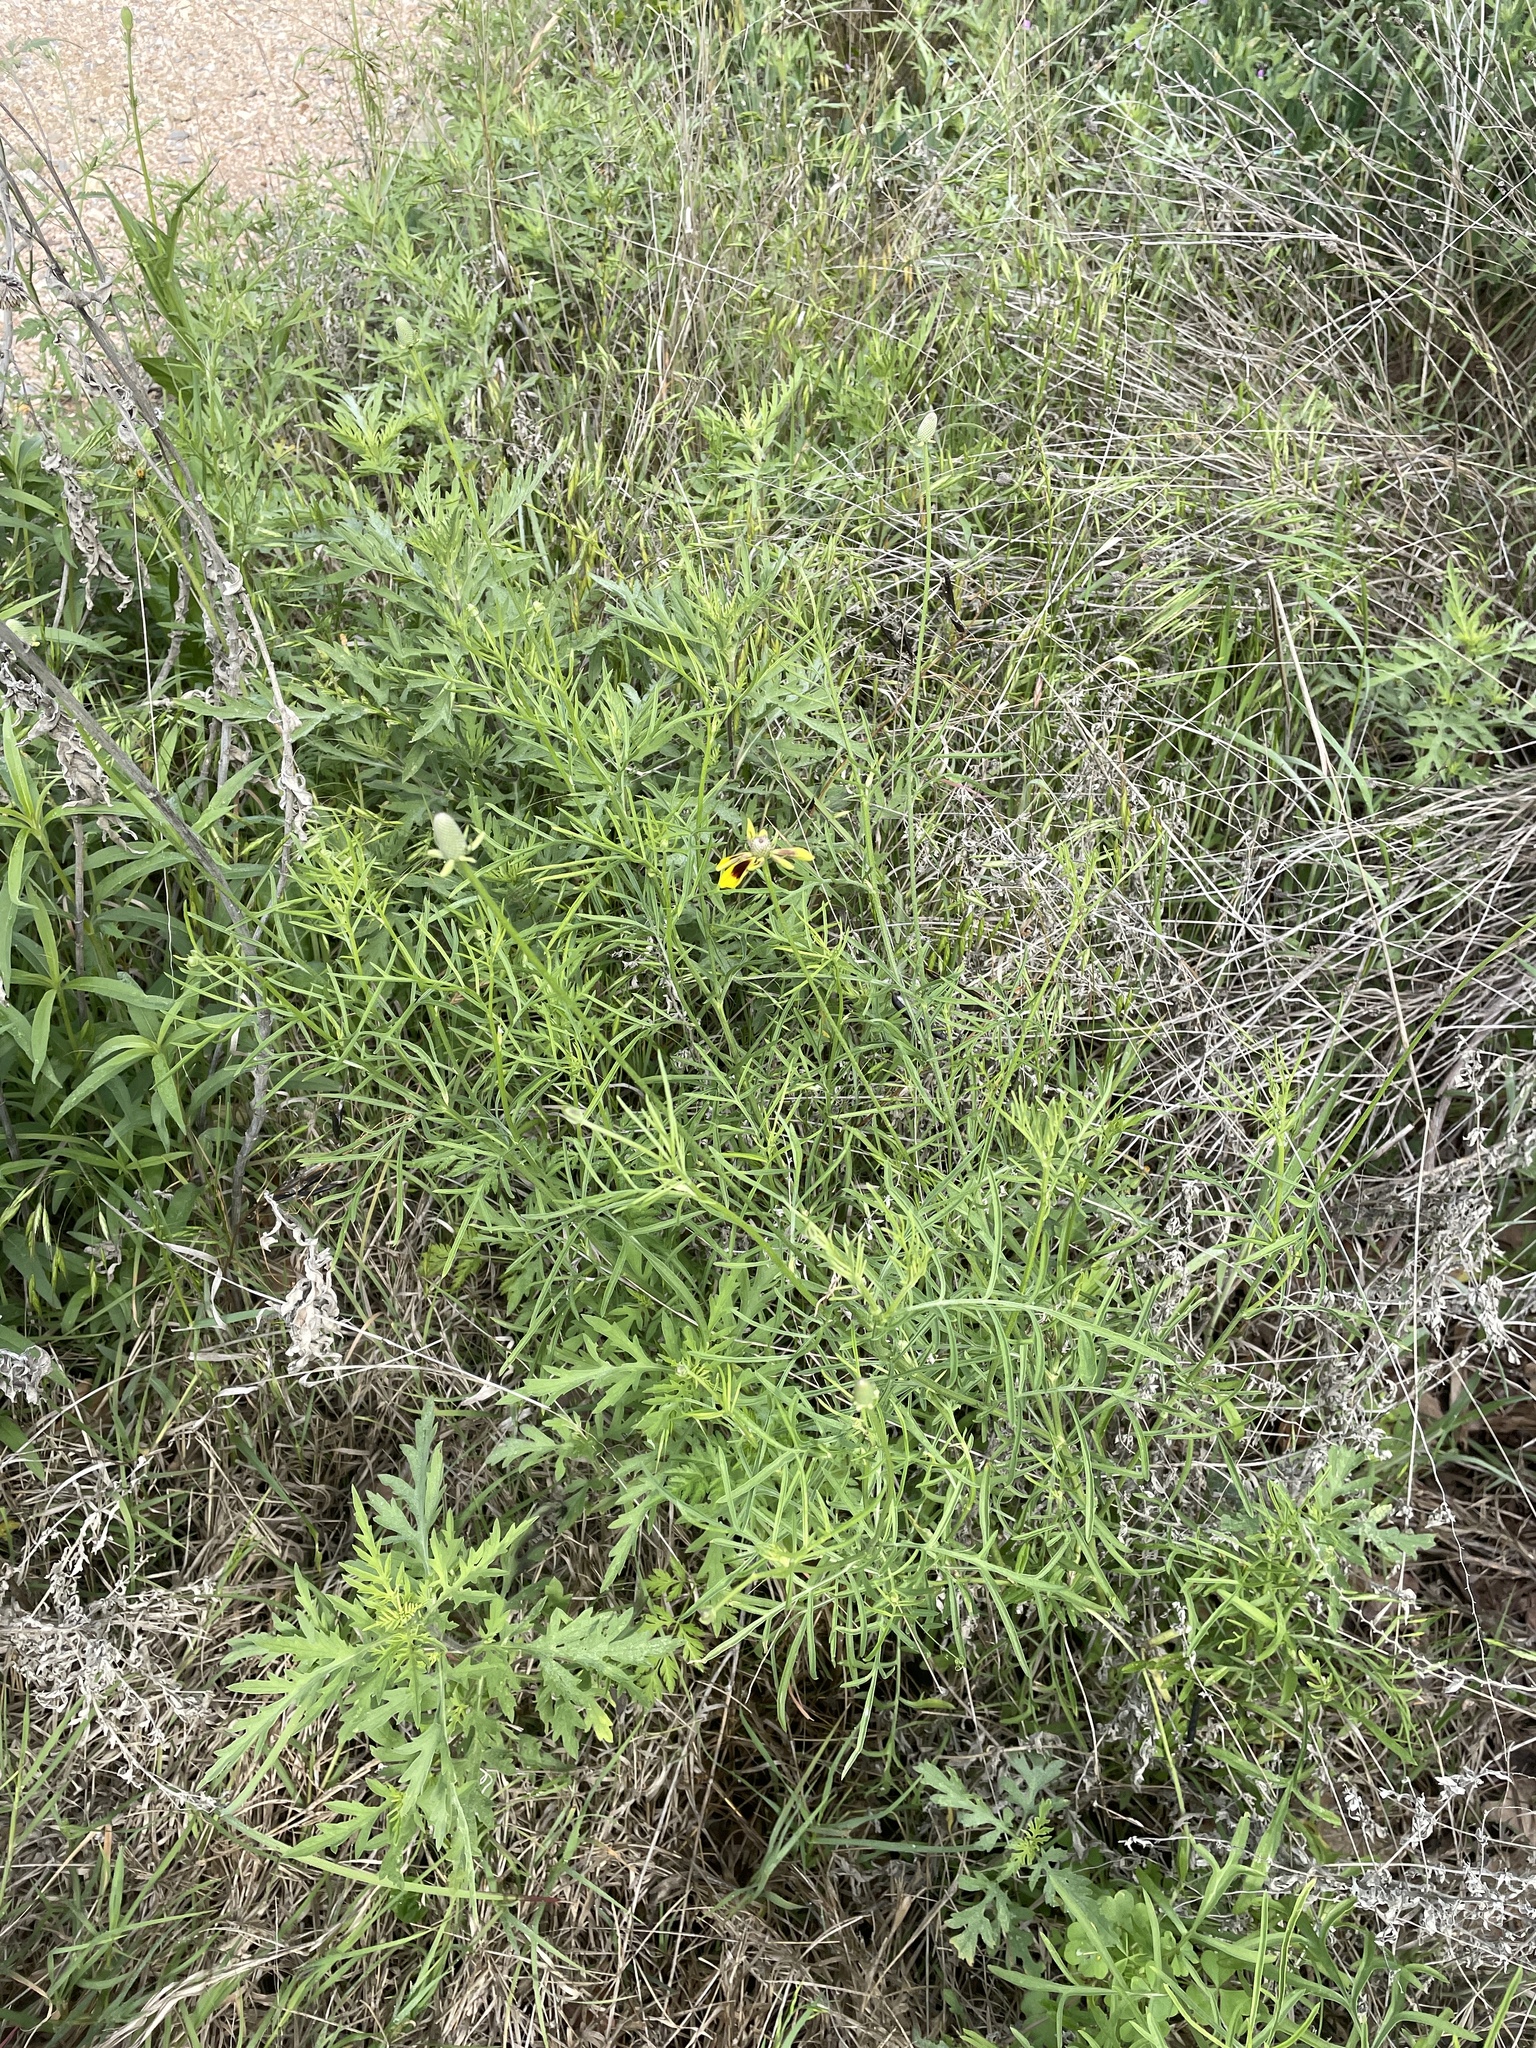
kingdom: Plantae
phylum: Tracheophyta
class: Magnoliopsida
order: Asterales
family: Asteraceae
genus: Ratibida
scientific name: Ratibida columnifera
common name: Prairie coneflower
